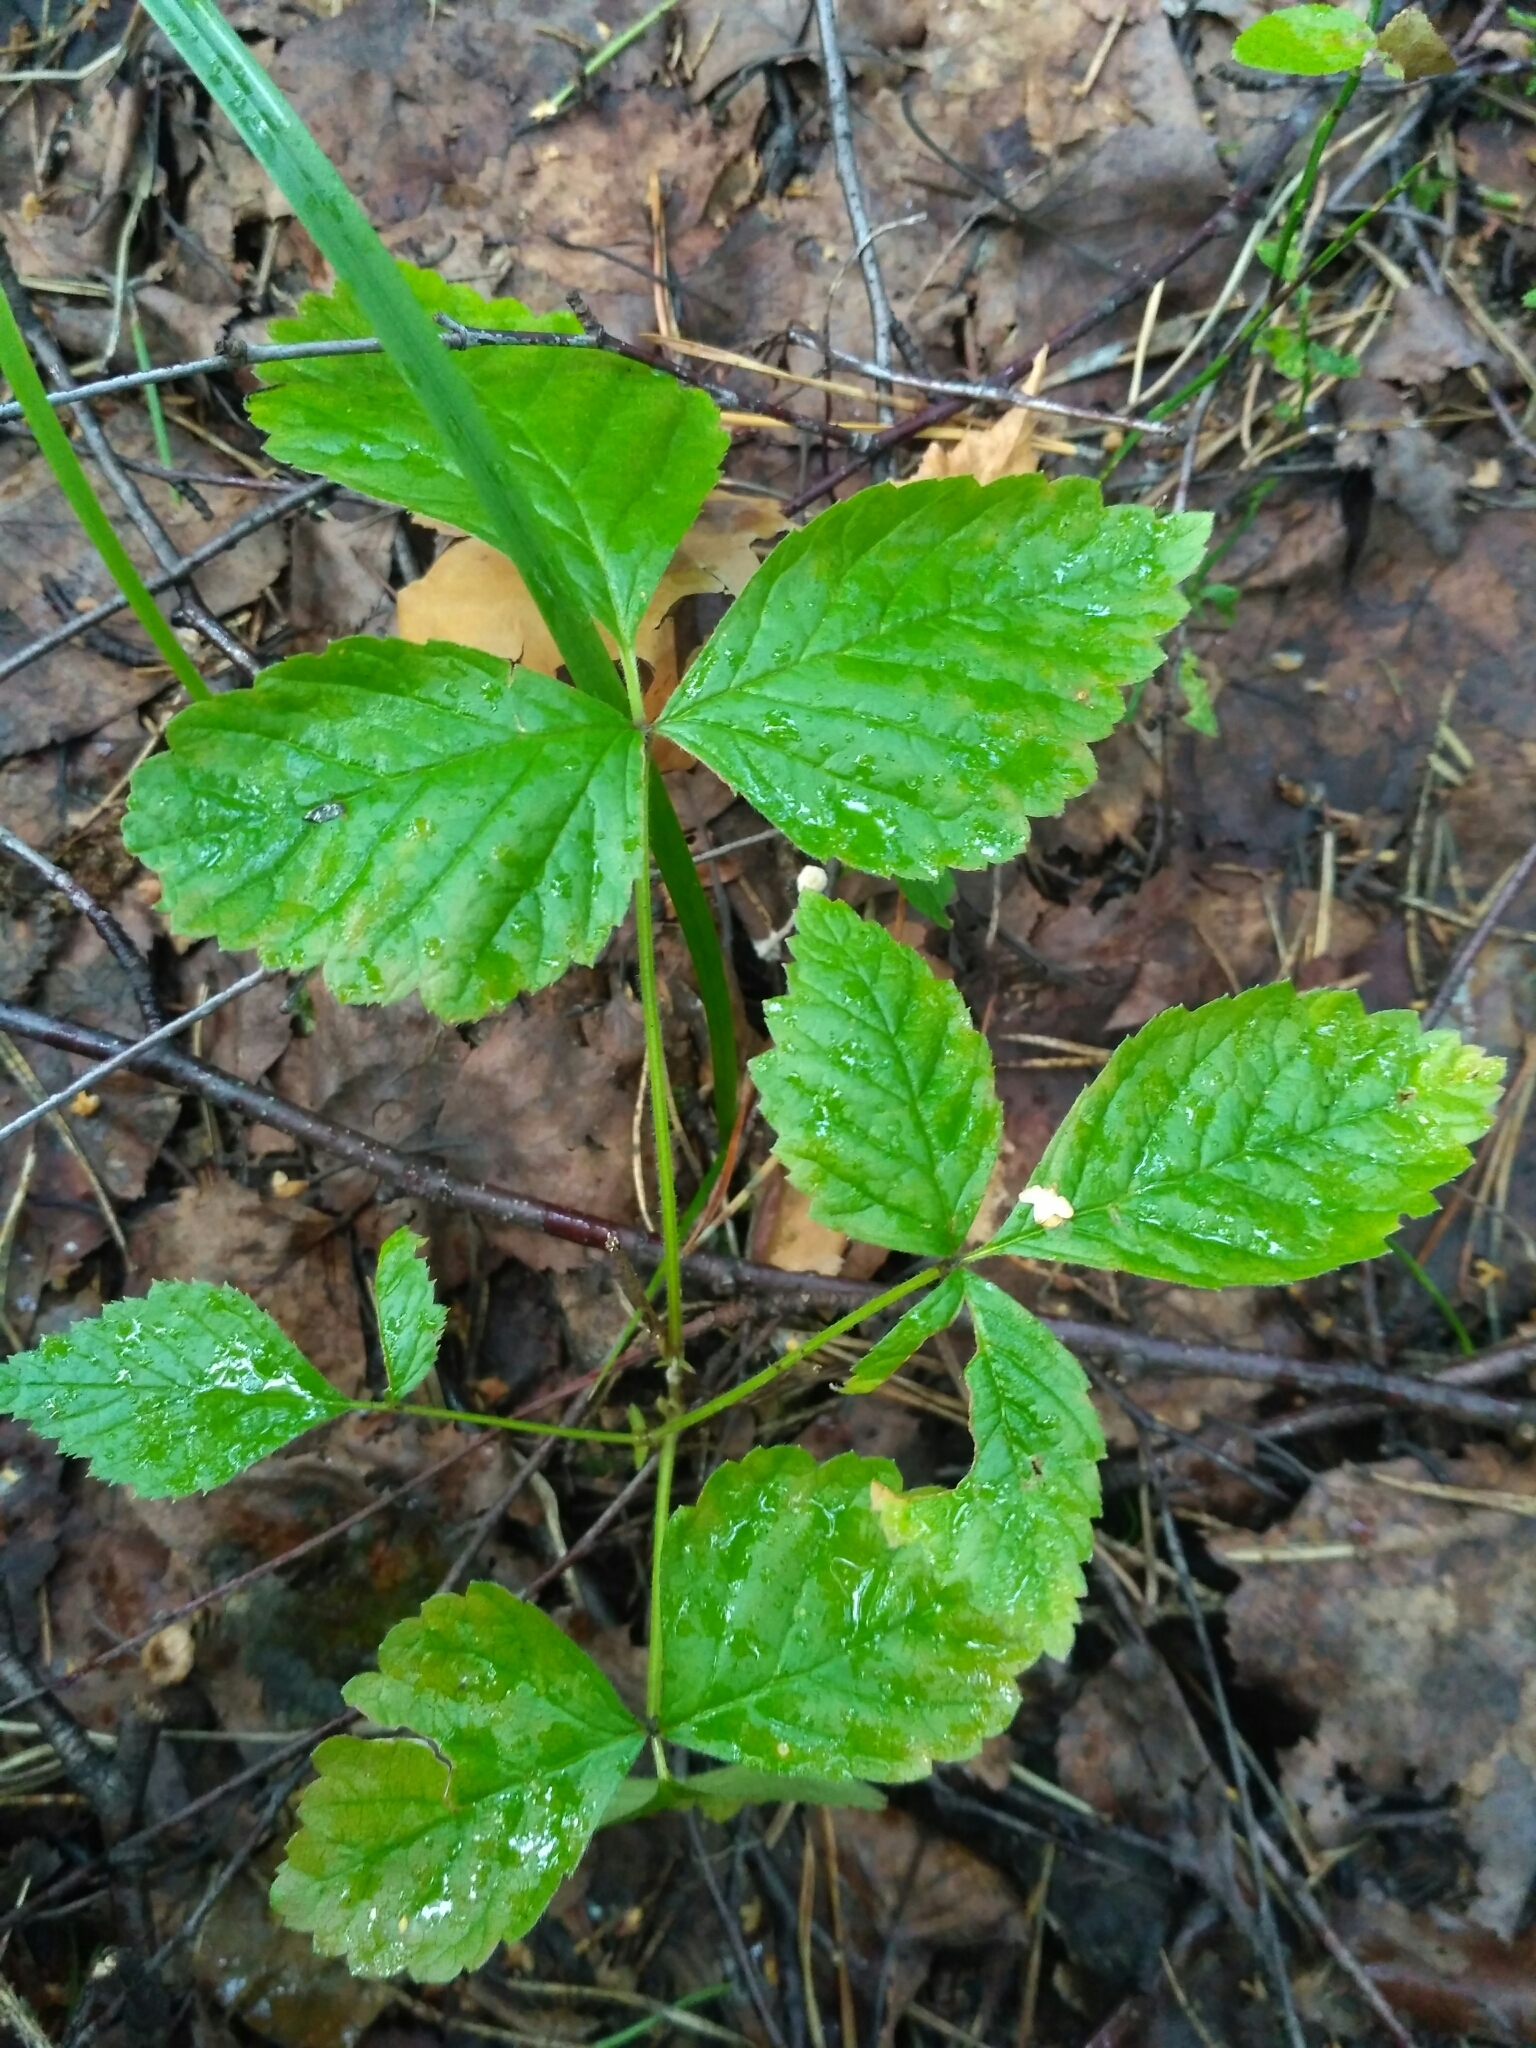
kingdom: Plantae
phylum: Tracheophyta
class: Magnoliopsida
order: Rosales
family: Rosaceae
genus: Rubus
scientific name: Rubus saxatilis
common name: Stone bramble
